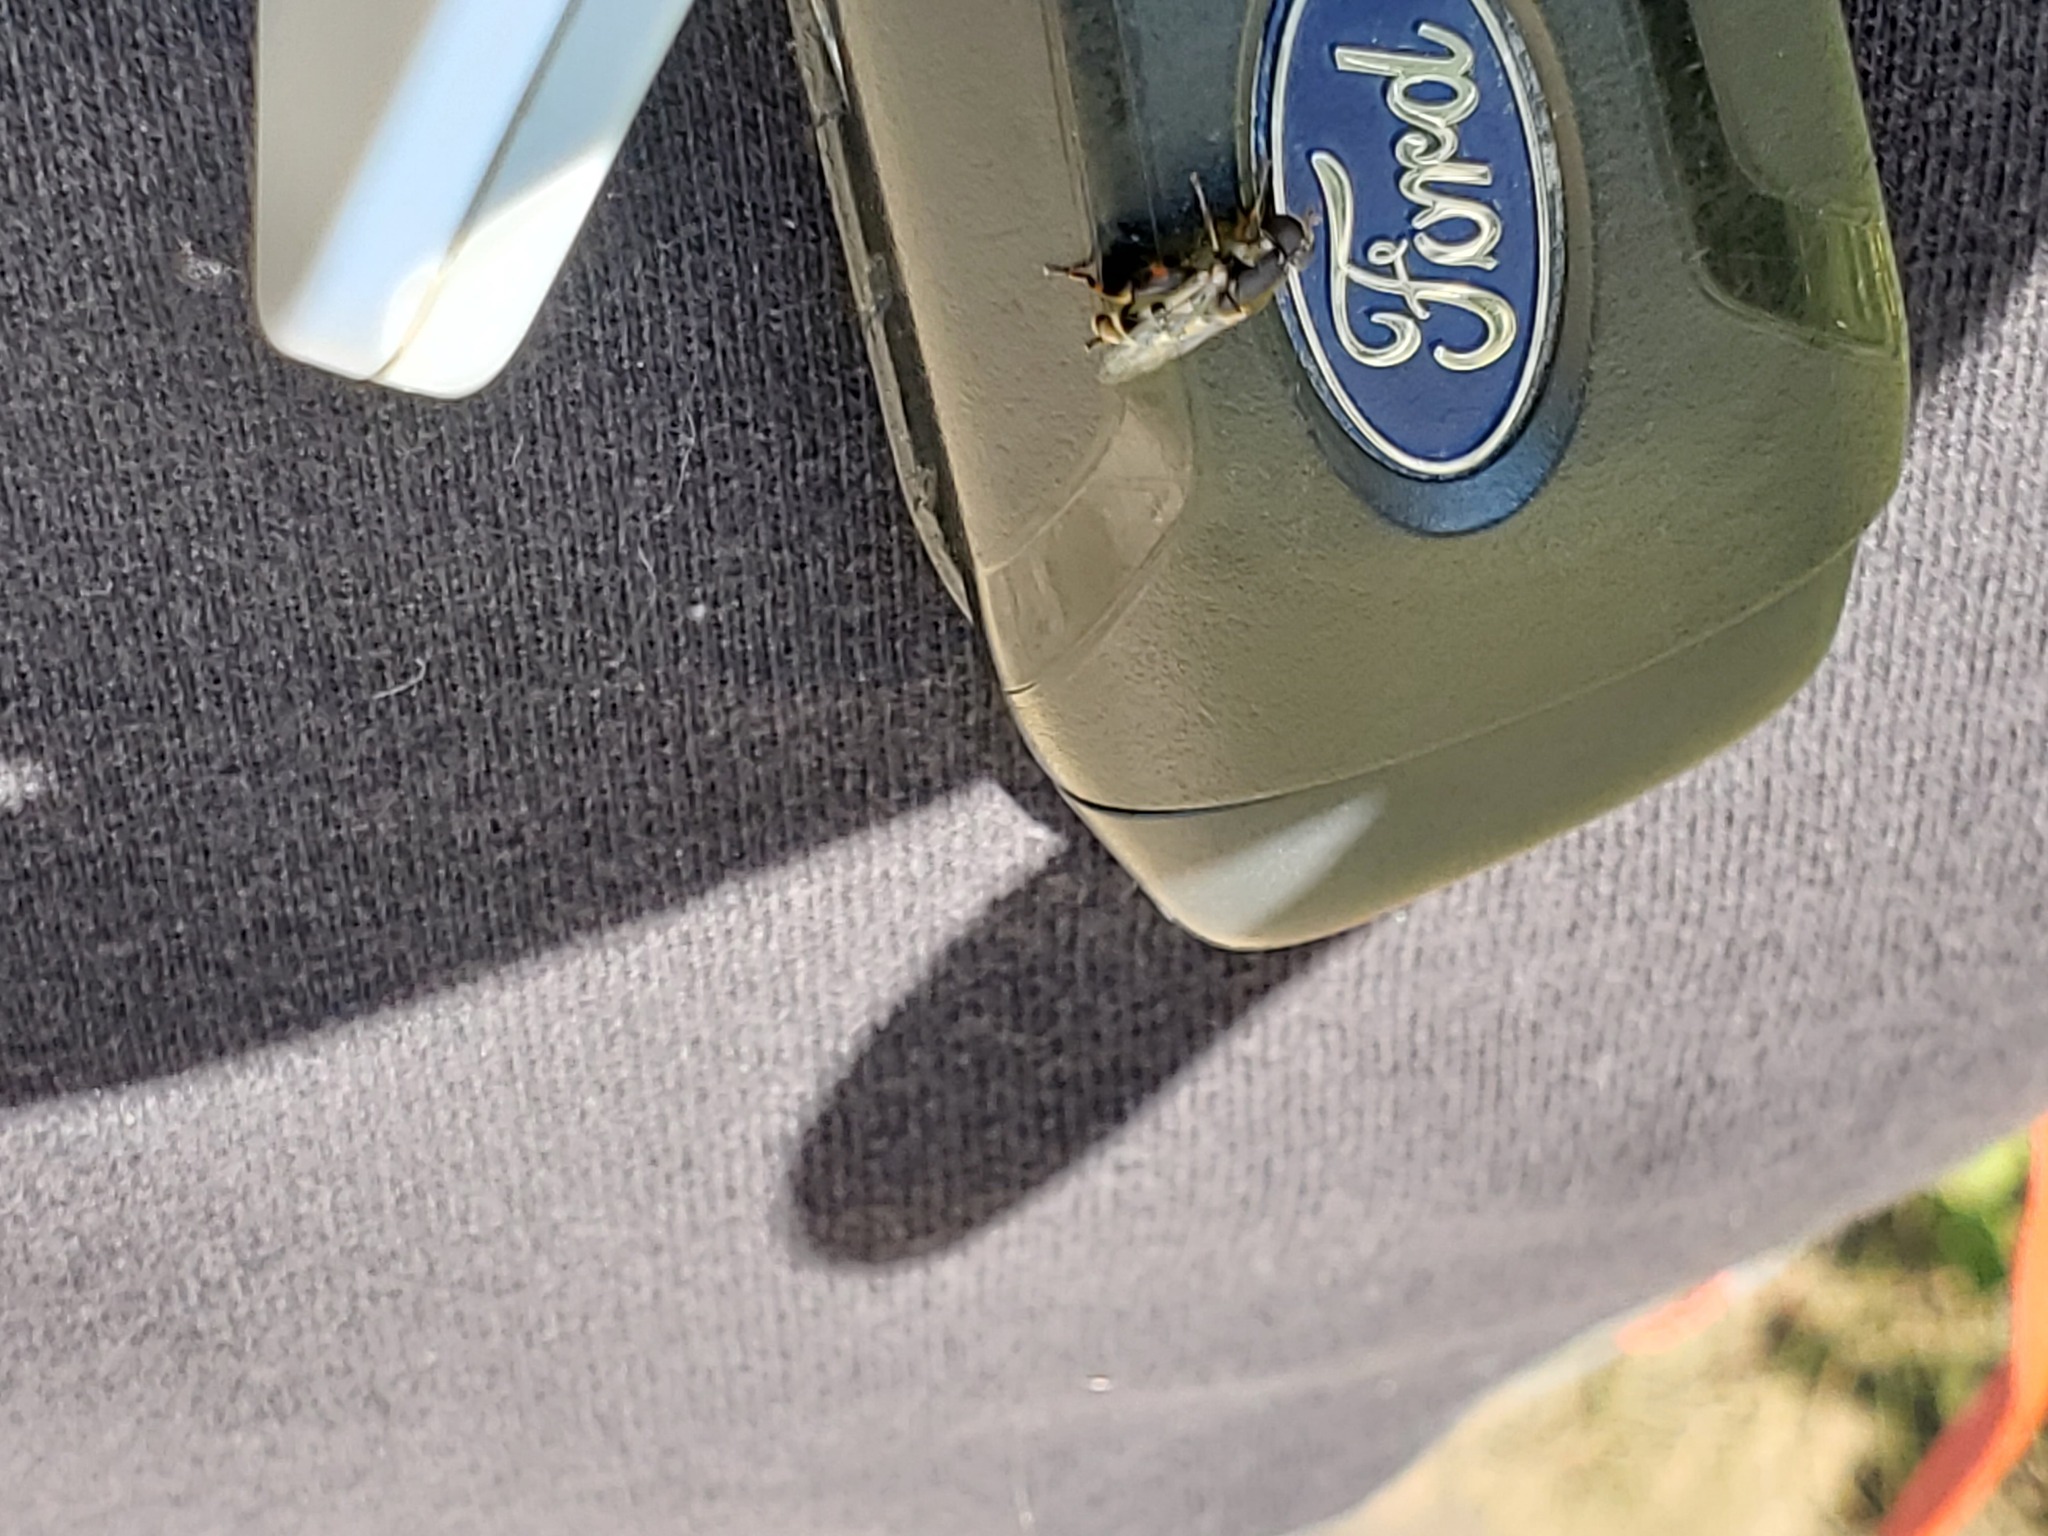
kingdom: Animalia
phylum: Arthropoda
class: Insecta
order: Diptera
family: Syrphidae
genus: Syritta
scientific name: Syritta pipiens
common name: Hover fly
